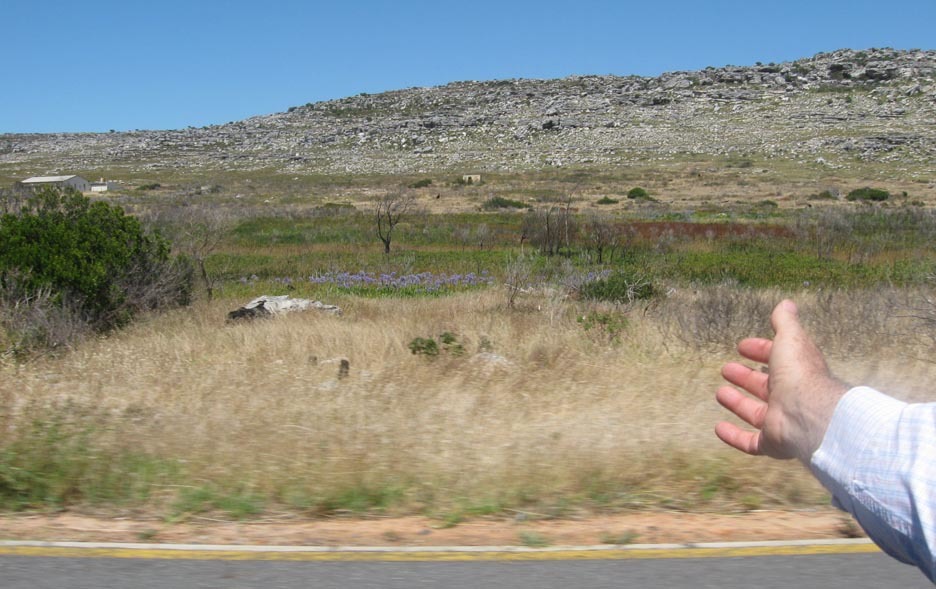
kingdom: Plantae
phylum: Tracheophyta
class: Liliopsida
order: Asparagales
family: Amaryllidaceae
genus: Agapanthus
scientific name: Agapanthus praecox
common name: African-lily
